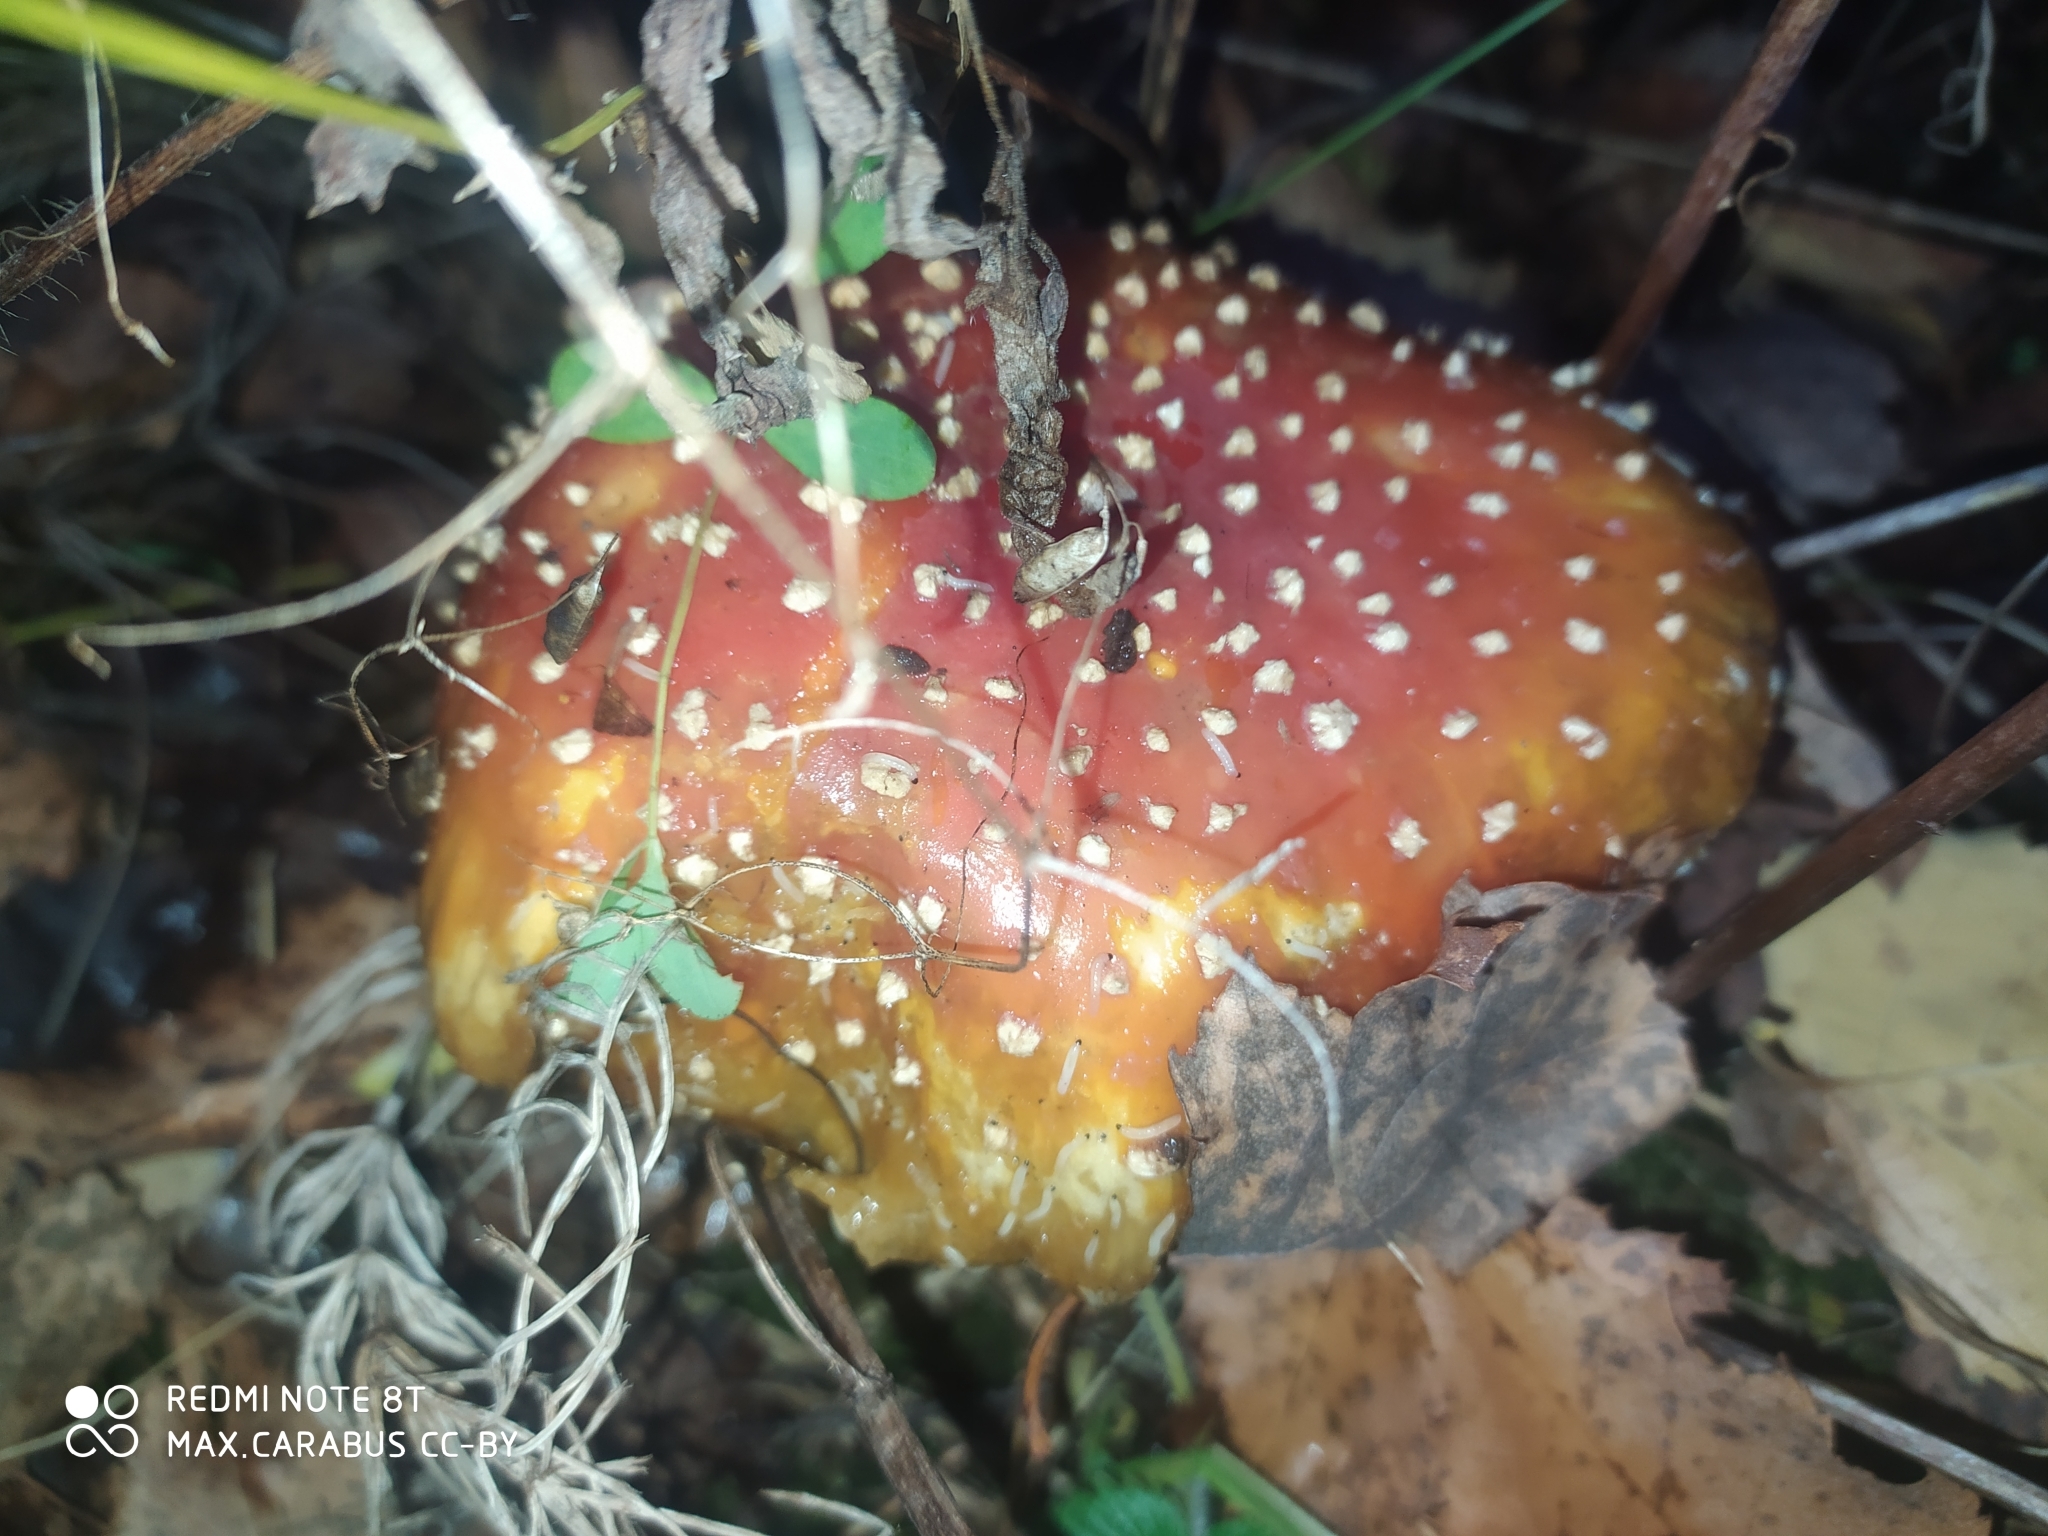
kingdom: Fungi
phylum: Basidiomycota
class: Agaricomycetes
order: Agaricales
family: Amanitaceae
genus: Amanita
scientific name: Amanita muscaria
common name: Fly agaric
